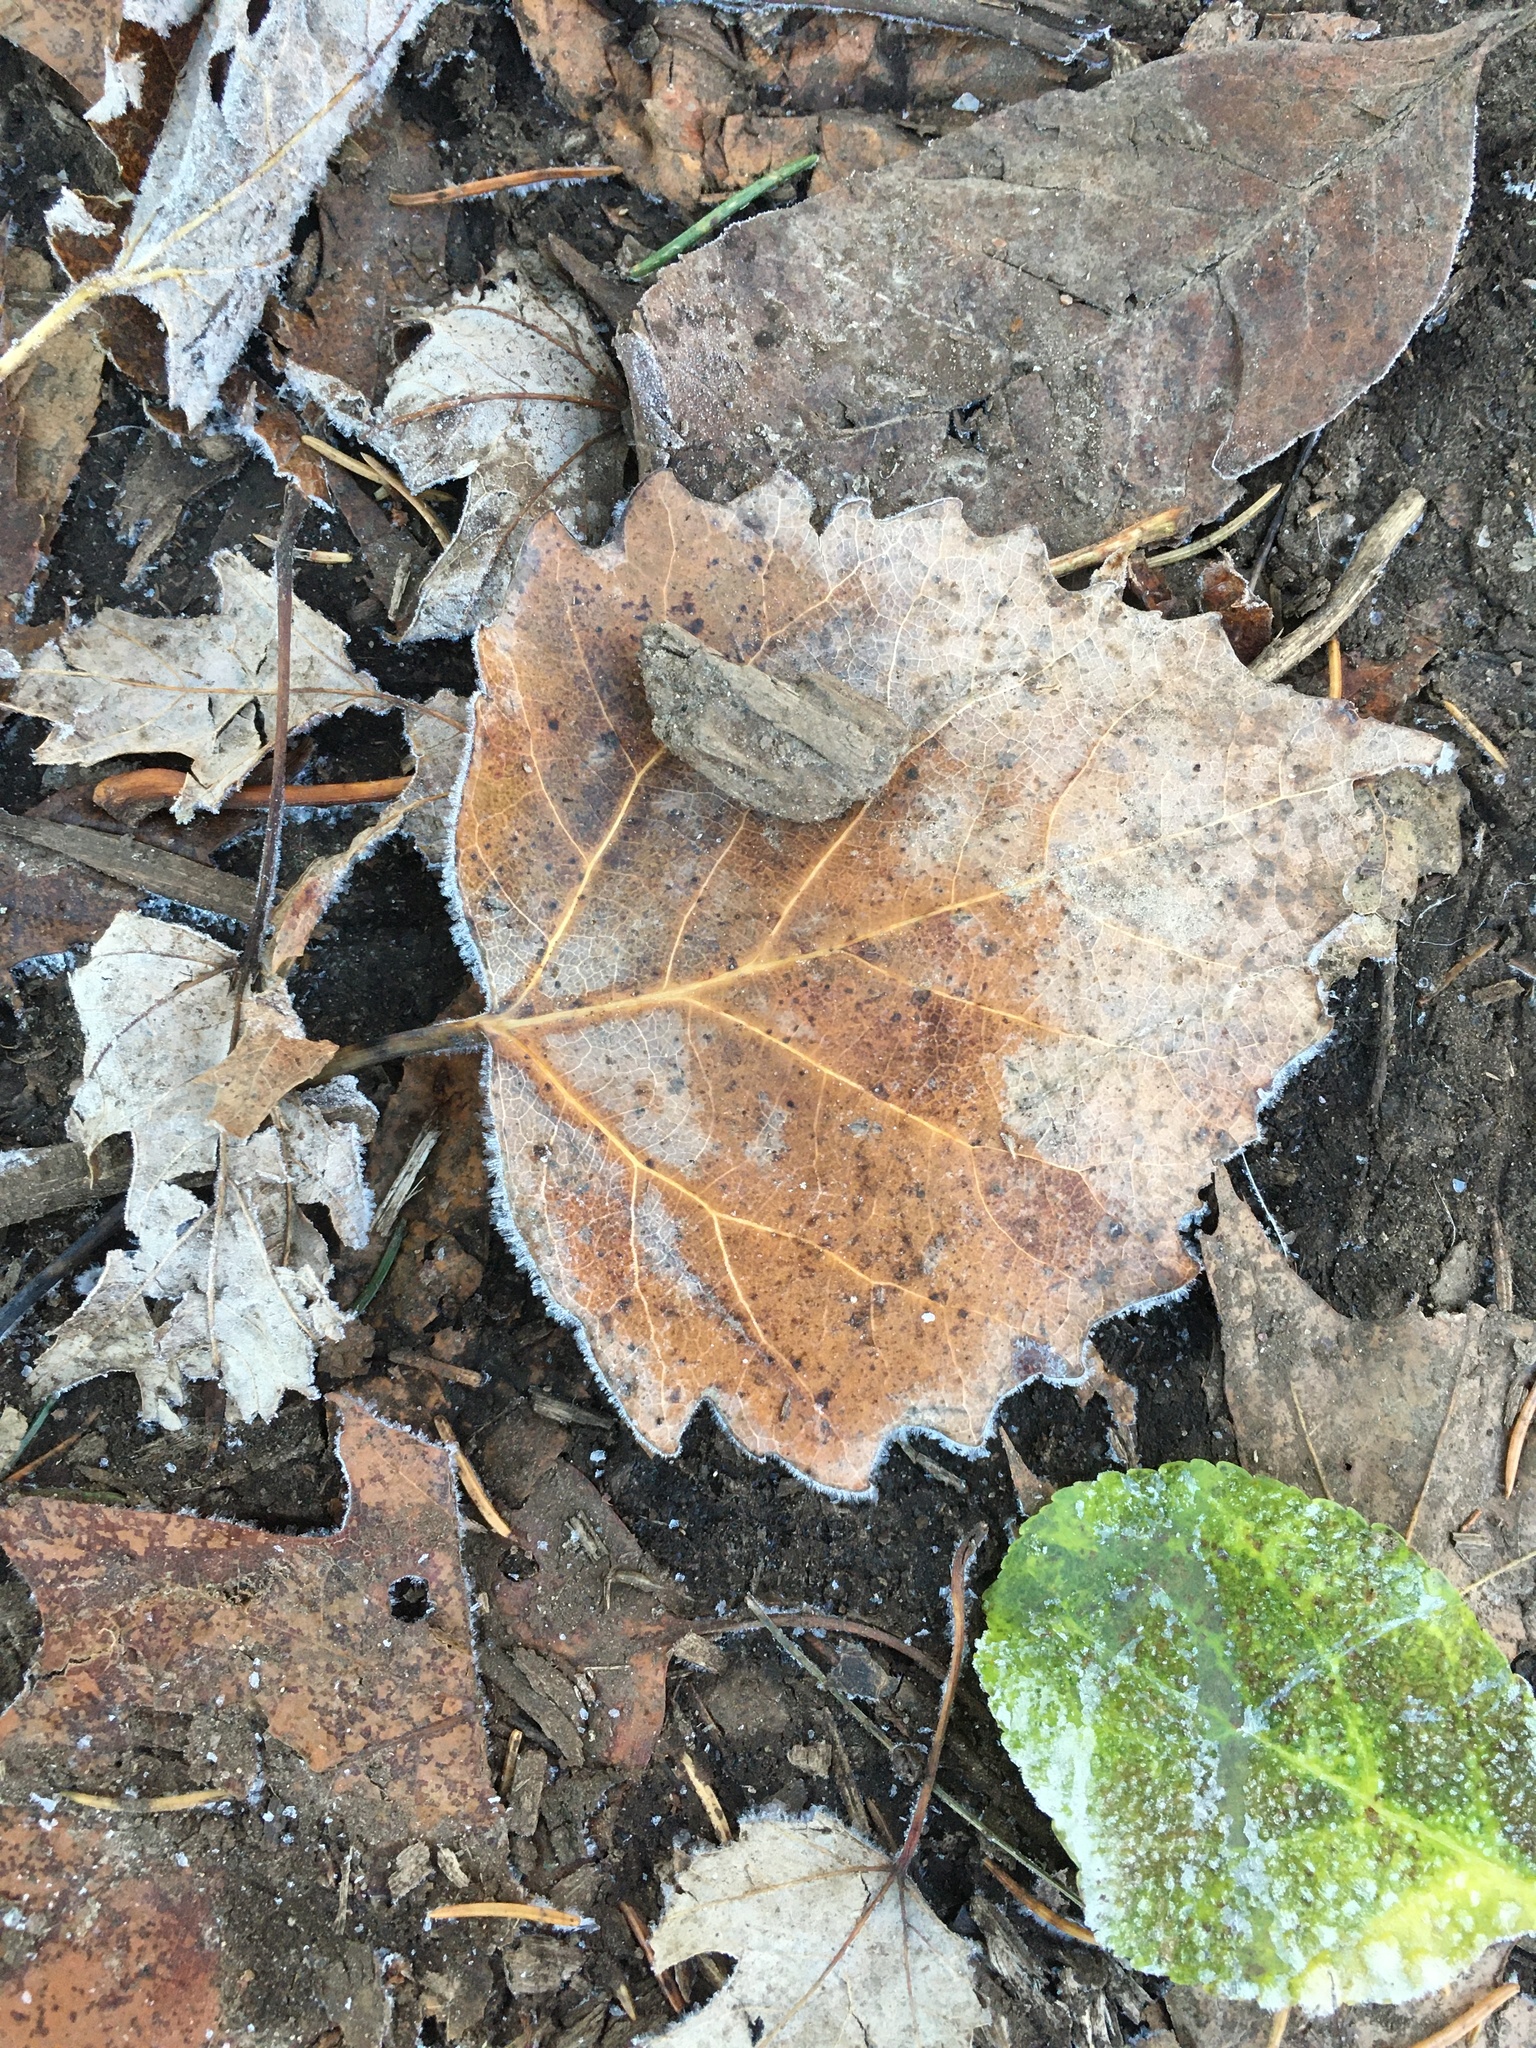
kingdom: Plantae
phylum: Tracheophyta
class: Magnoliopsida
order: Malpighiales
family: Salicaceae
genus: Populus
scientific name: Populus grandidentata
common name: Bigtooth aspen
